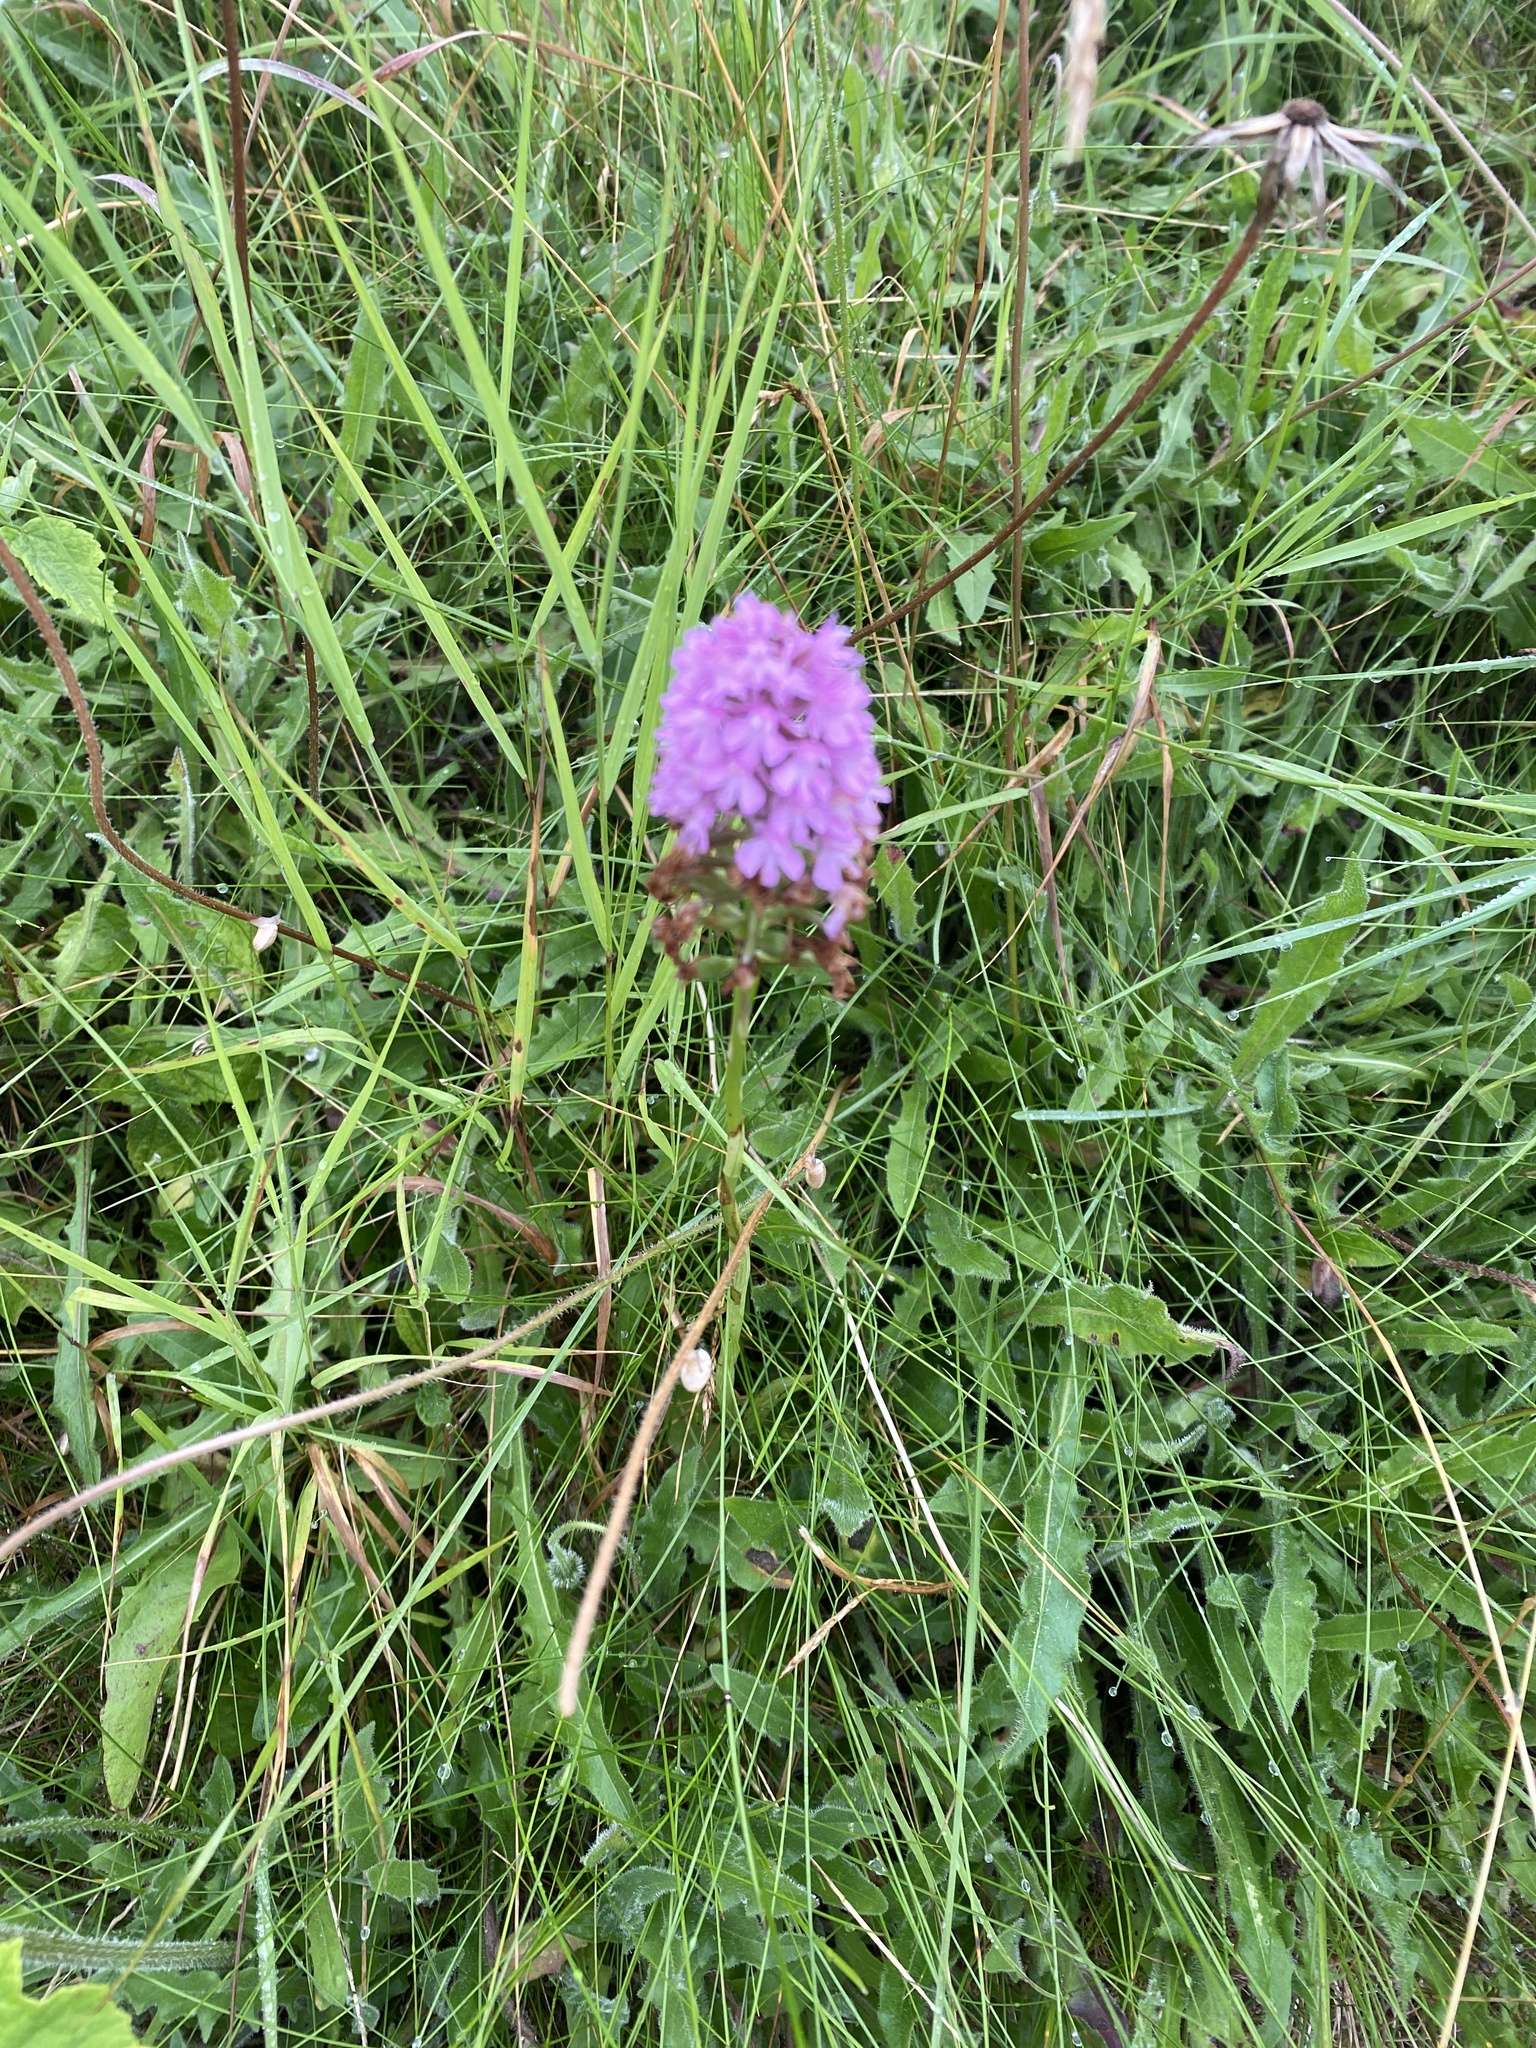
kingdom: Plantae
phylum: Tracheophyta
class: Liliopsida
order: Asparagales
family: Orchidaceae
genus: Anacamptis
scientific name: Anacamptis pyramidalis
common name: Pyramidal orchid
